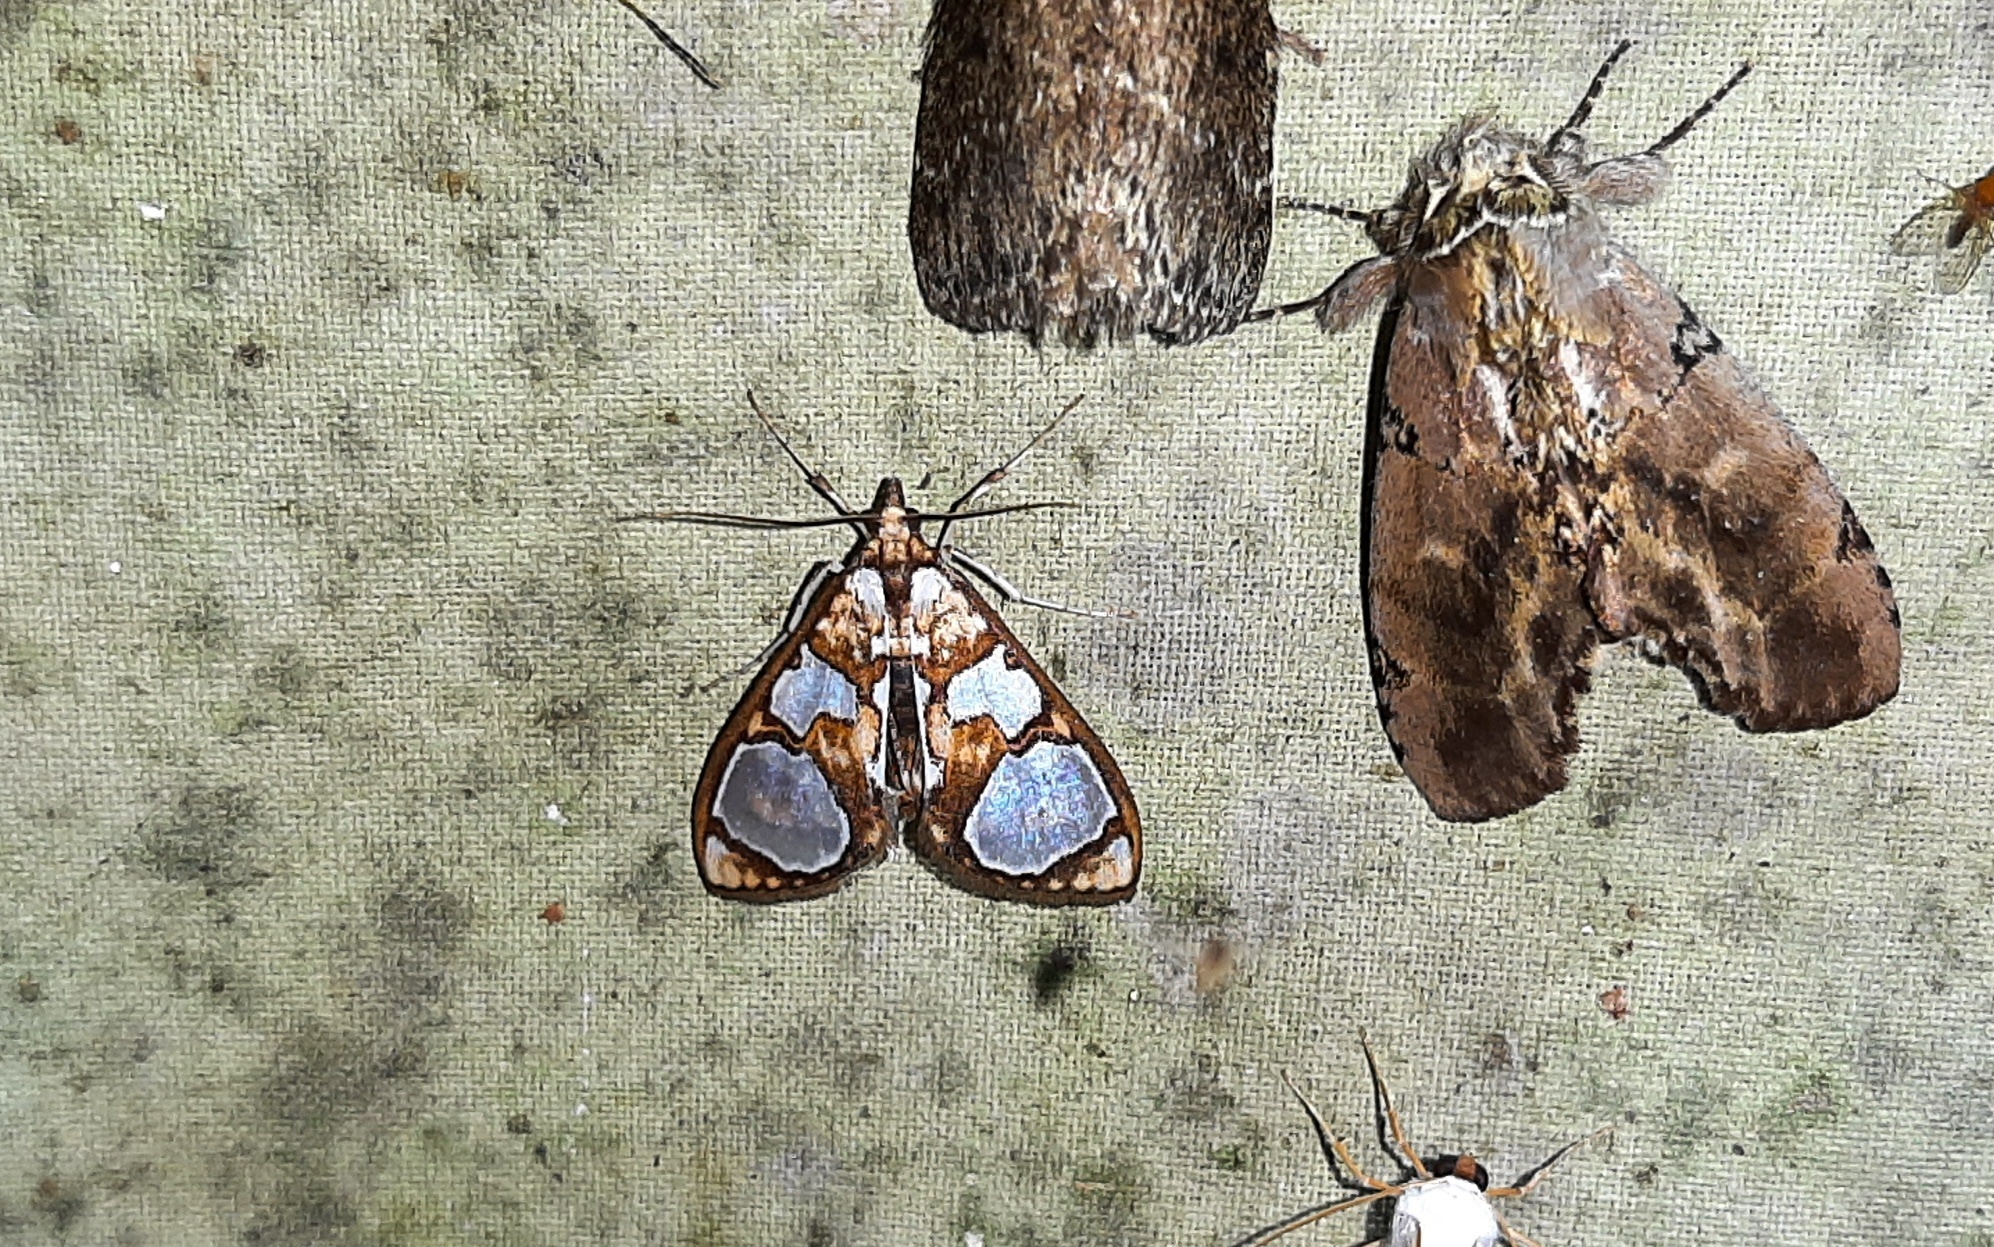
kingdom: Animalia
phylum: Arthropoda
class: Insecta
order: Lepidoptera
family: Crambidae
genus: Glyphodes
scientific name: Glyphodes grandisalis
